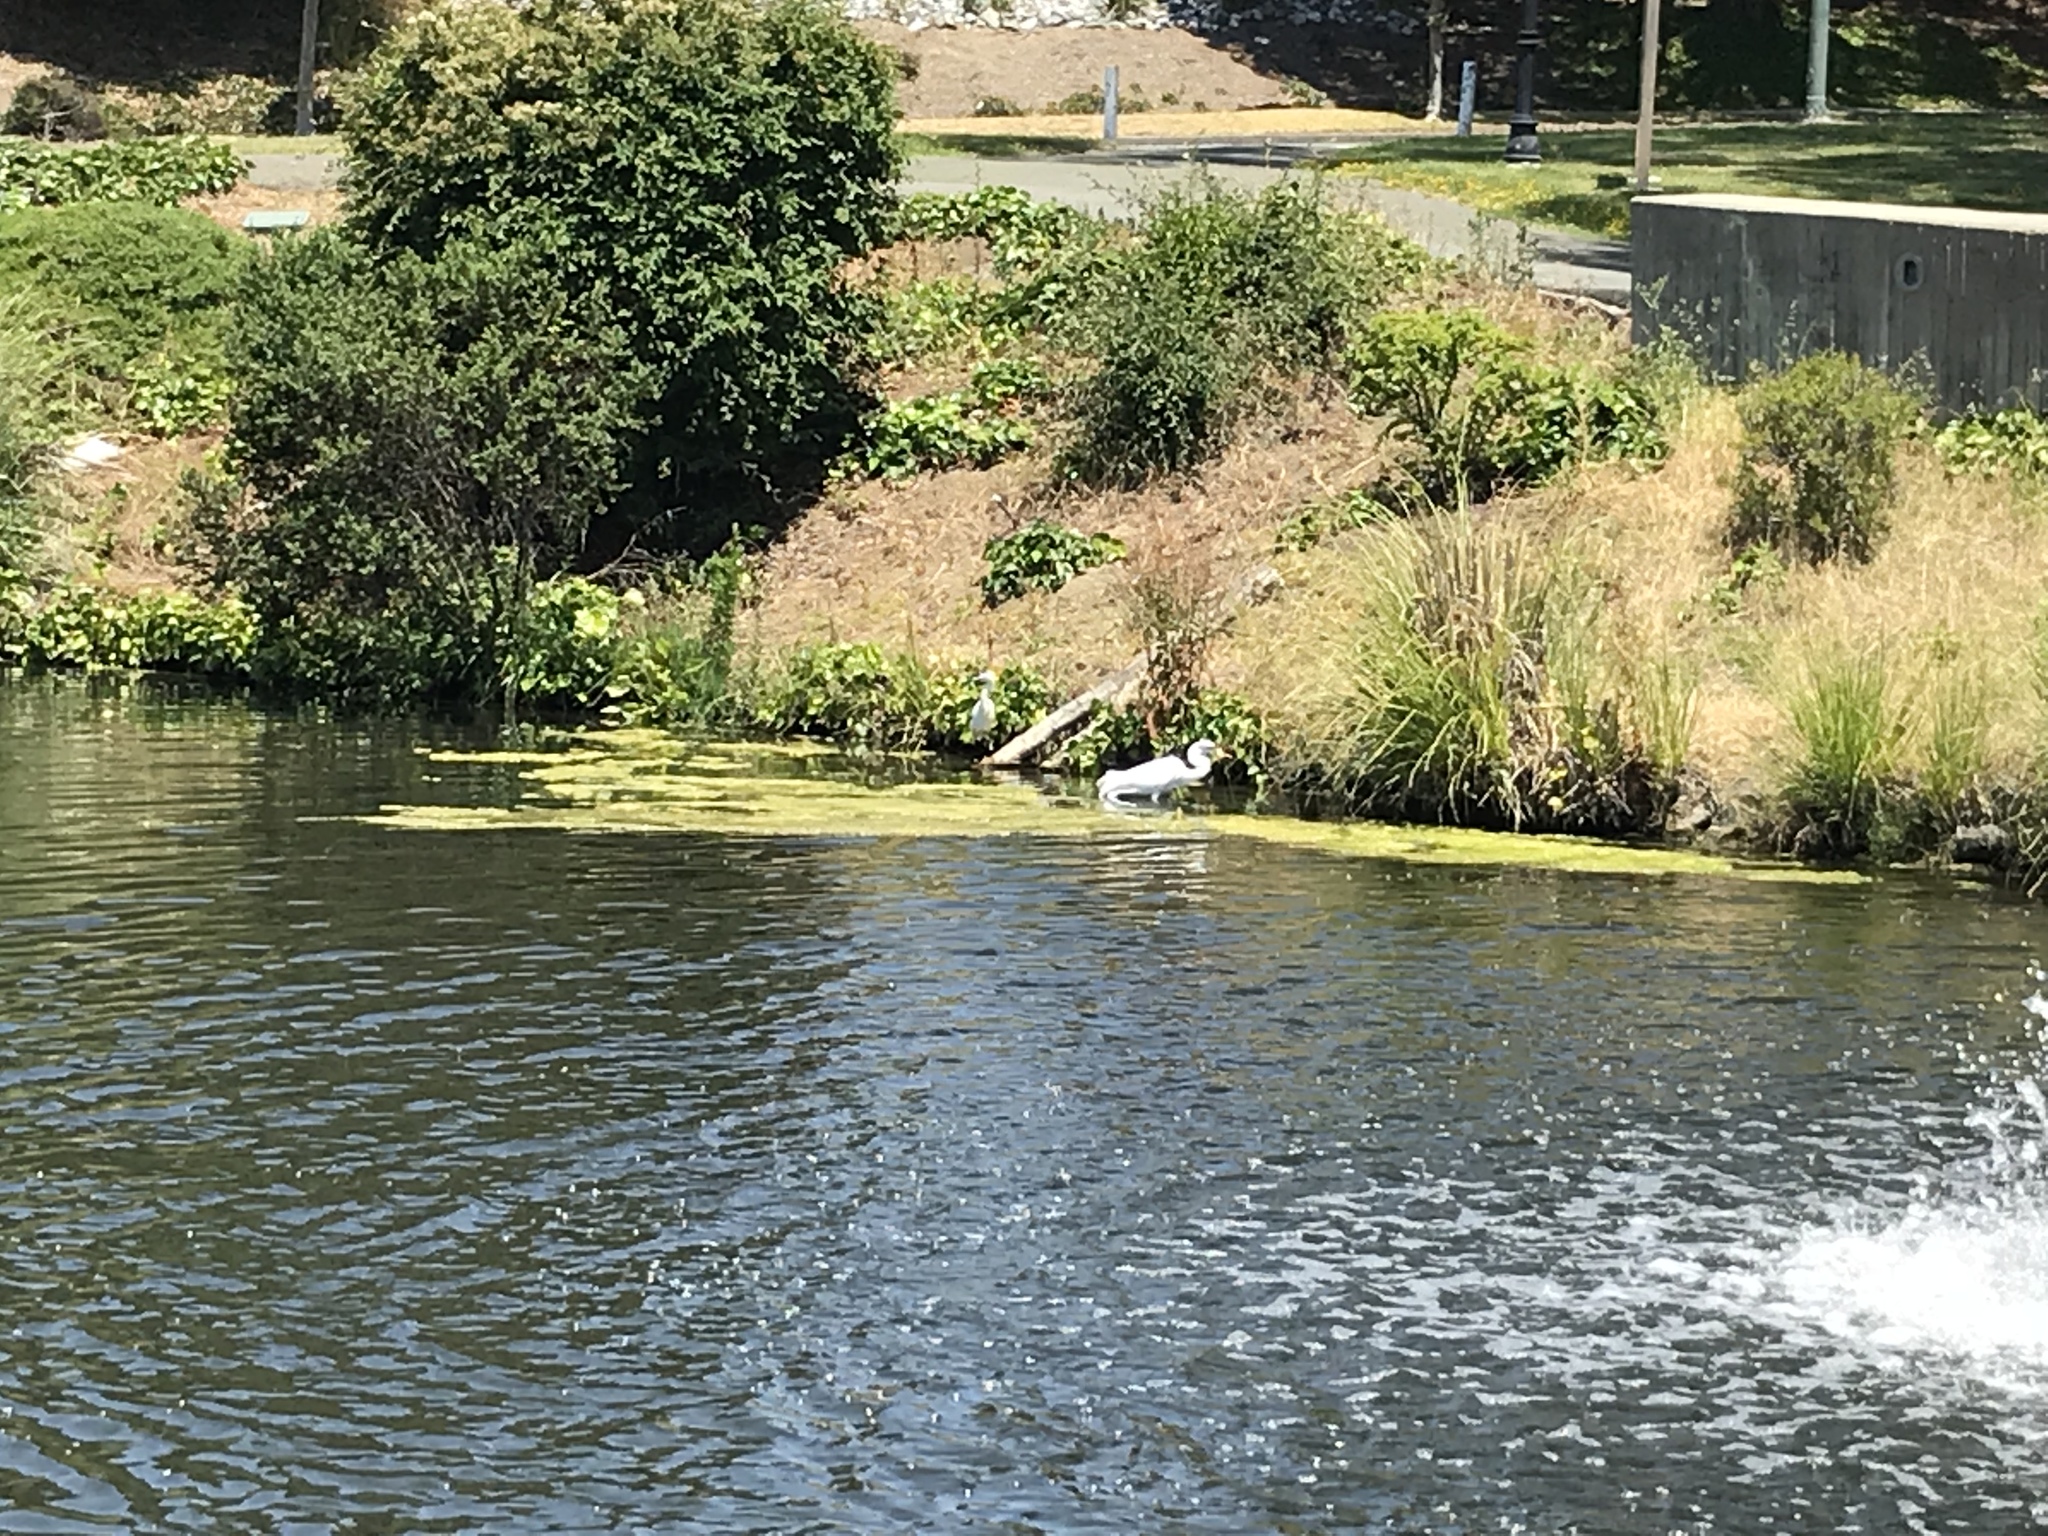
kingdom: Animalia
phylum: Chordata
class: Aves
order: Pelecaniformes
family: Ardeidae
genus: Ardea
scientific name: Ardea alba
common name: Great egret
